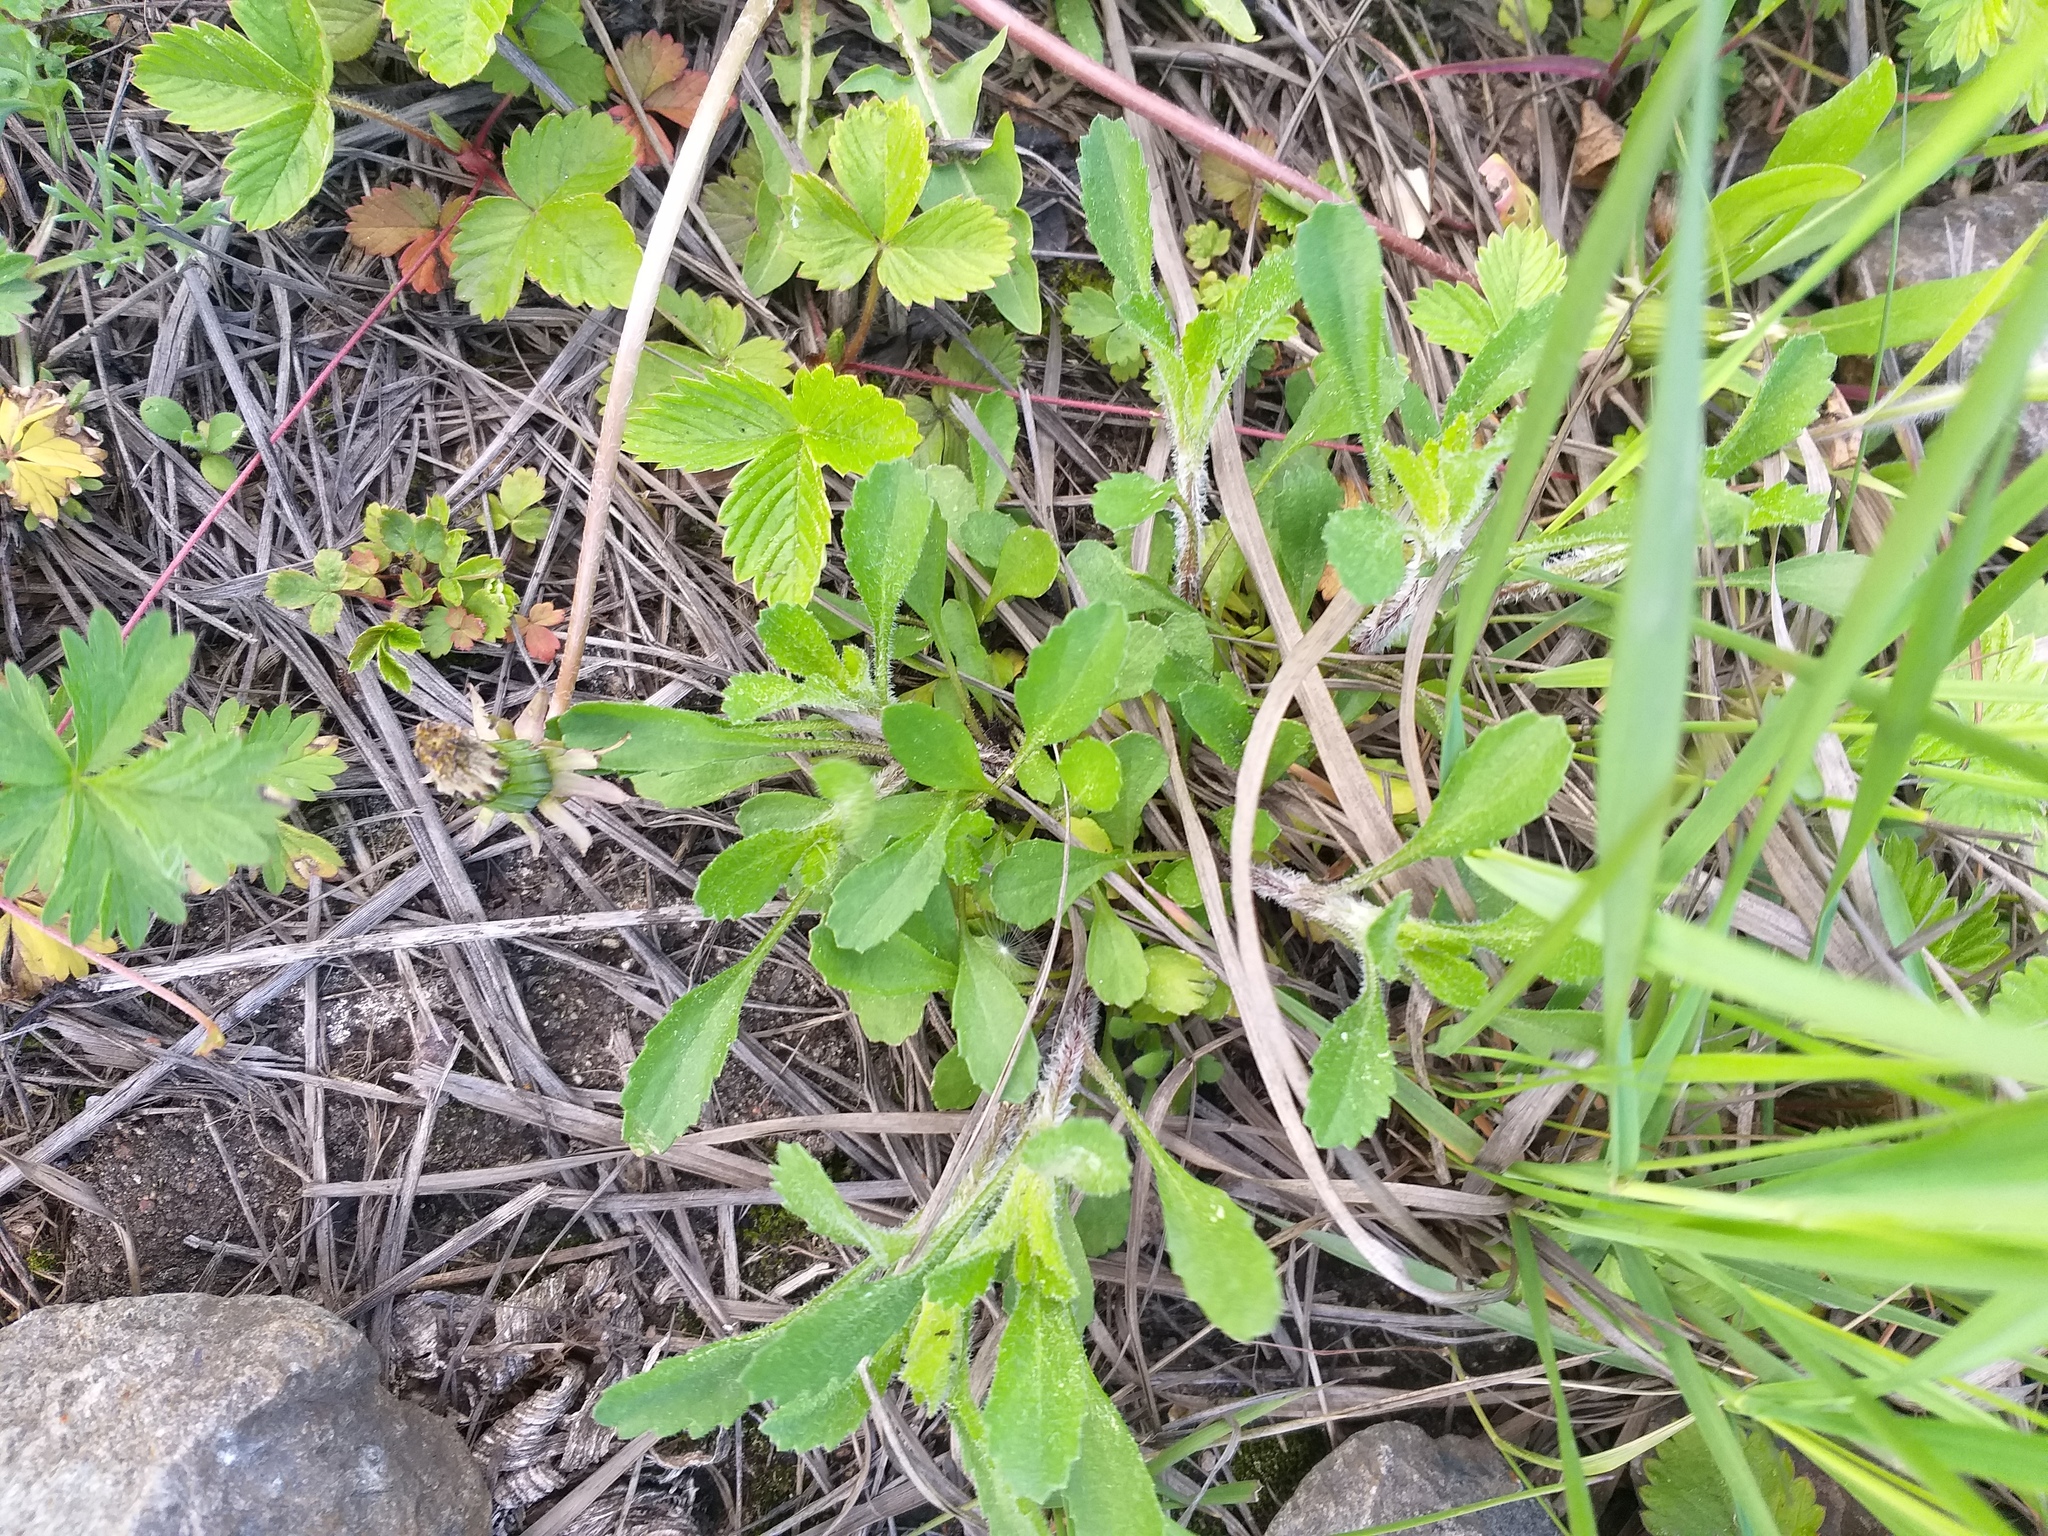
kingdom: Plantae
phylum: Tracheophyta
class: Magnoliopsida
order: Asterales
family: Asteraceae
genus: Leucanthemum
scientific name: Leucanthemum vulgare
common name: Oxeye daisy
